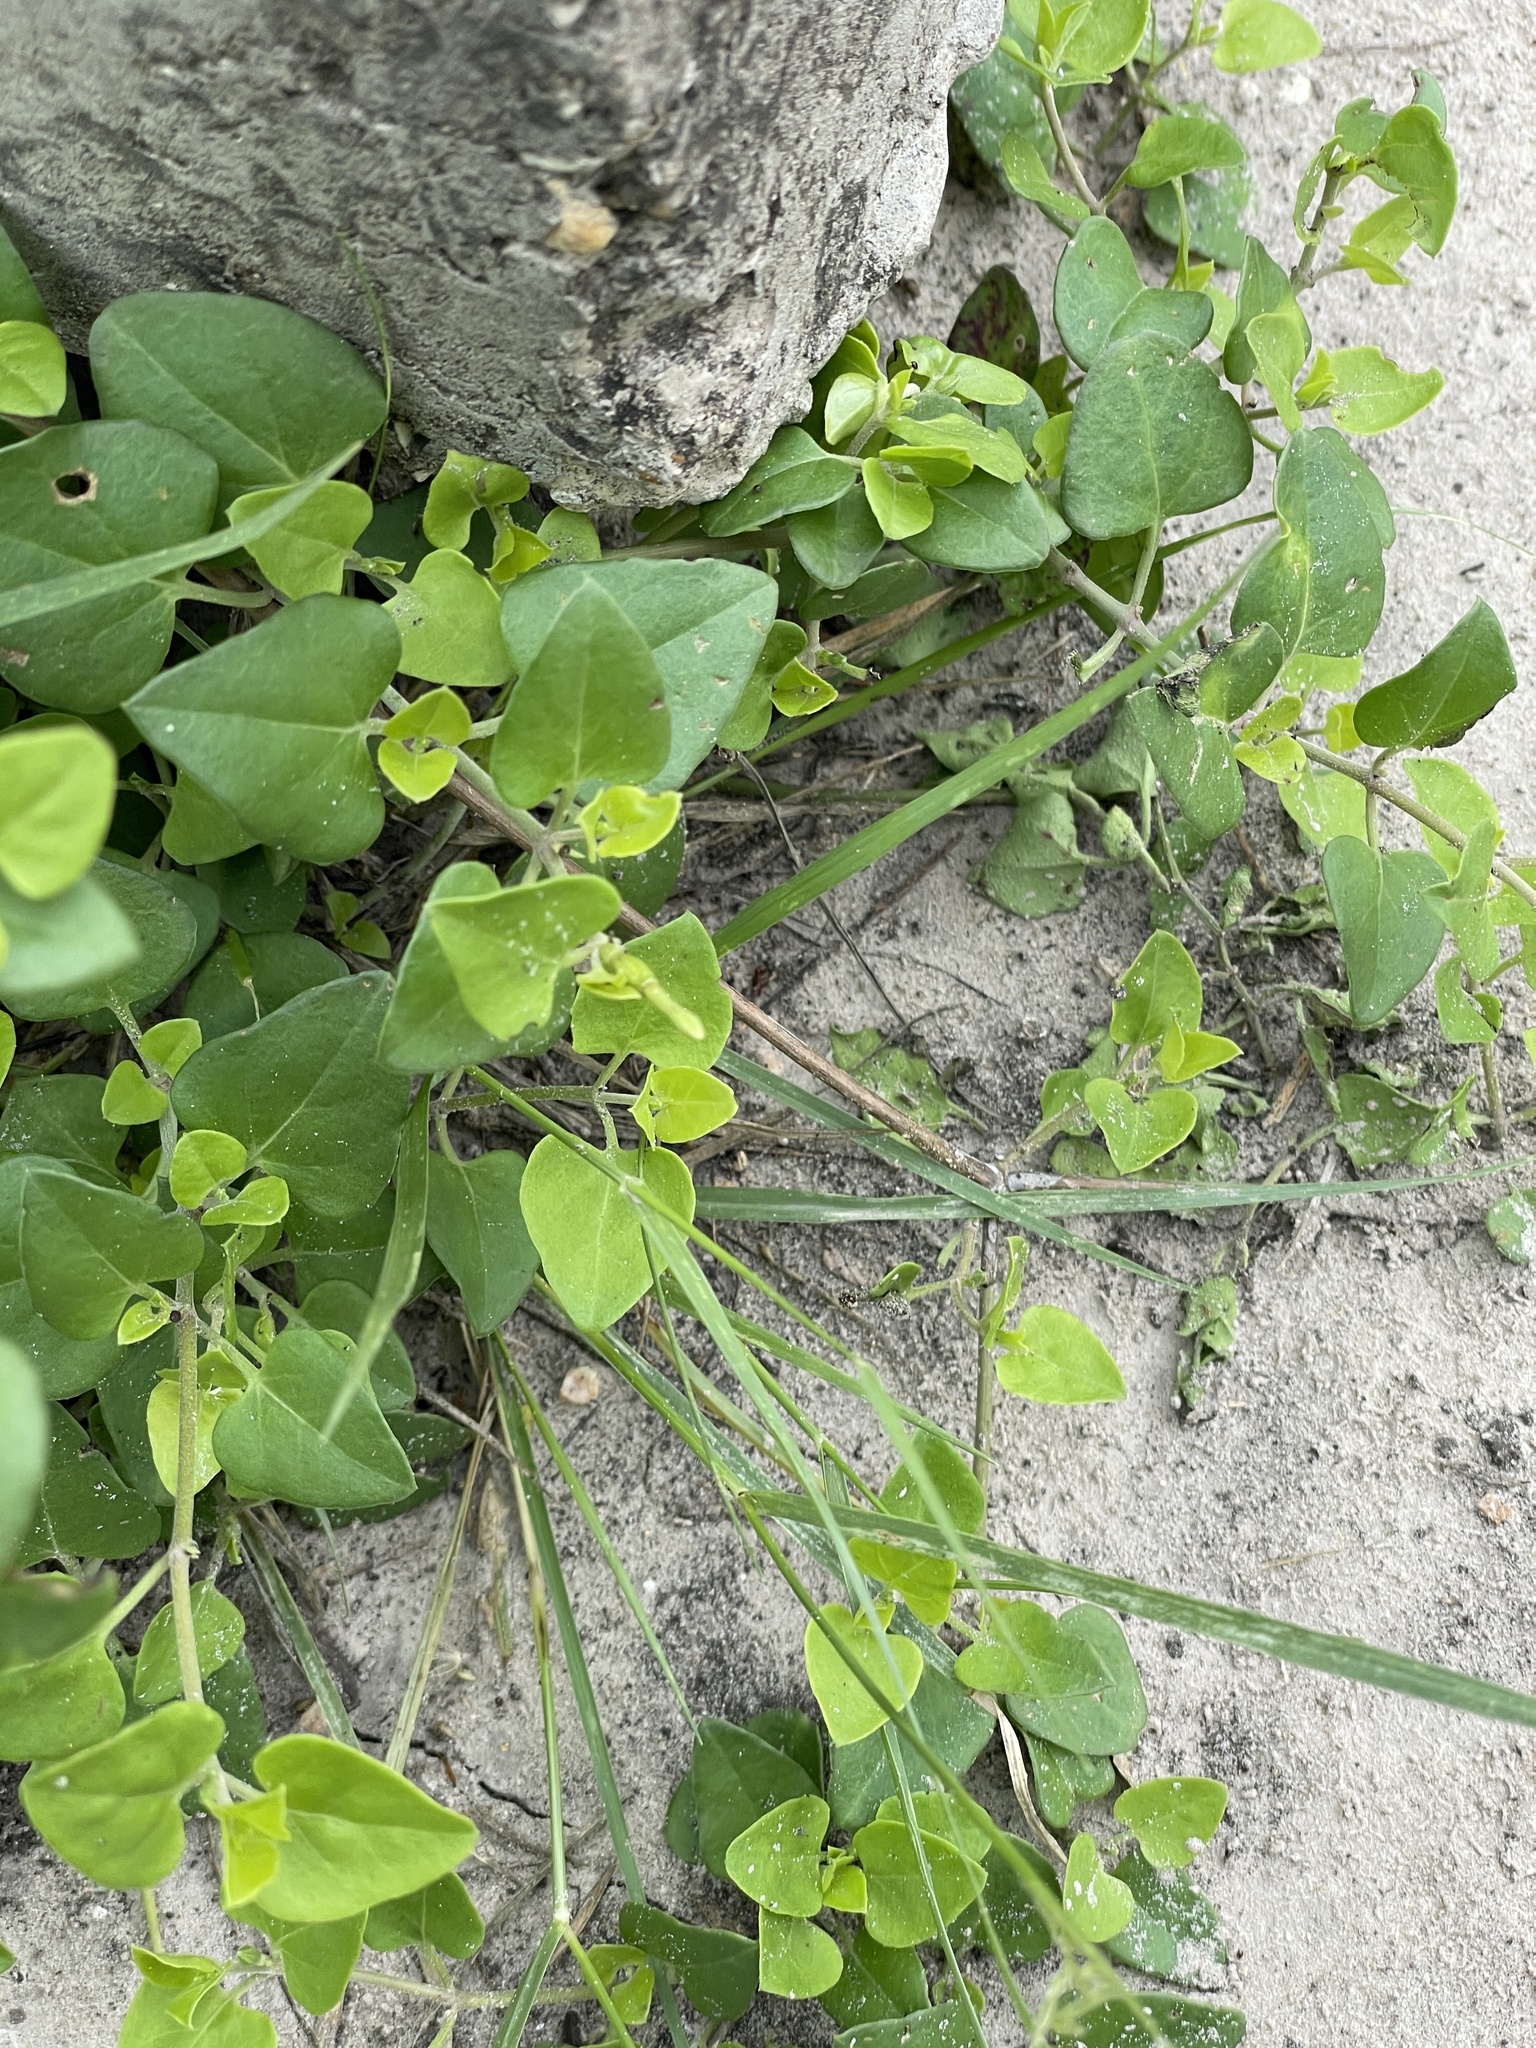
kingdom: Plantae
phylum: Tracheophyta
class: Magnoliopsida
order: Caryophyllales
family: Nyctaginaceae
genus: Acleisanthes
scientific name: Acleisanthes obtusa
